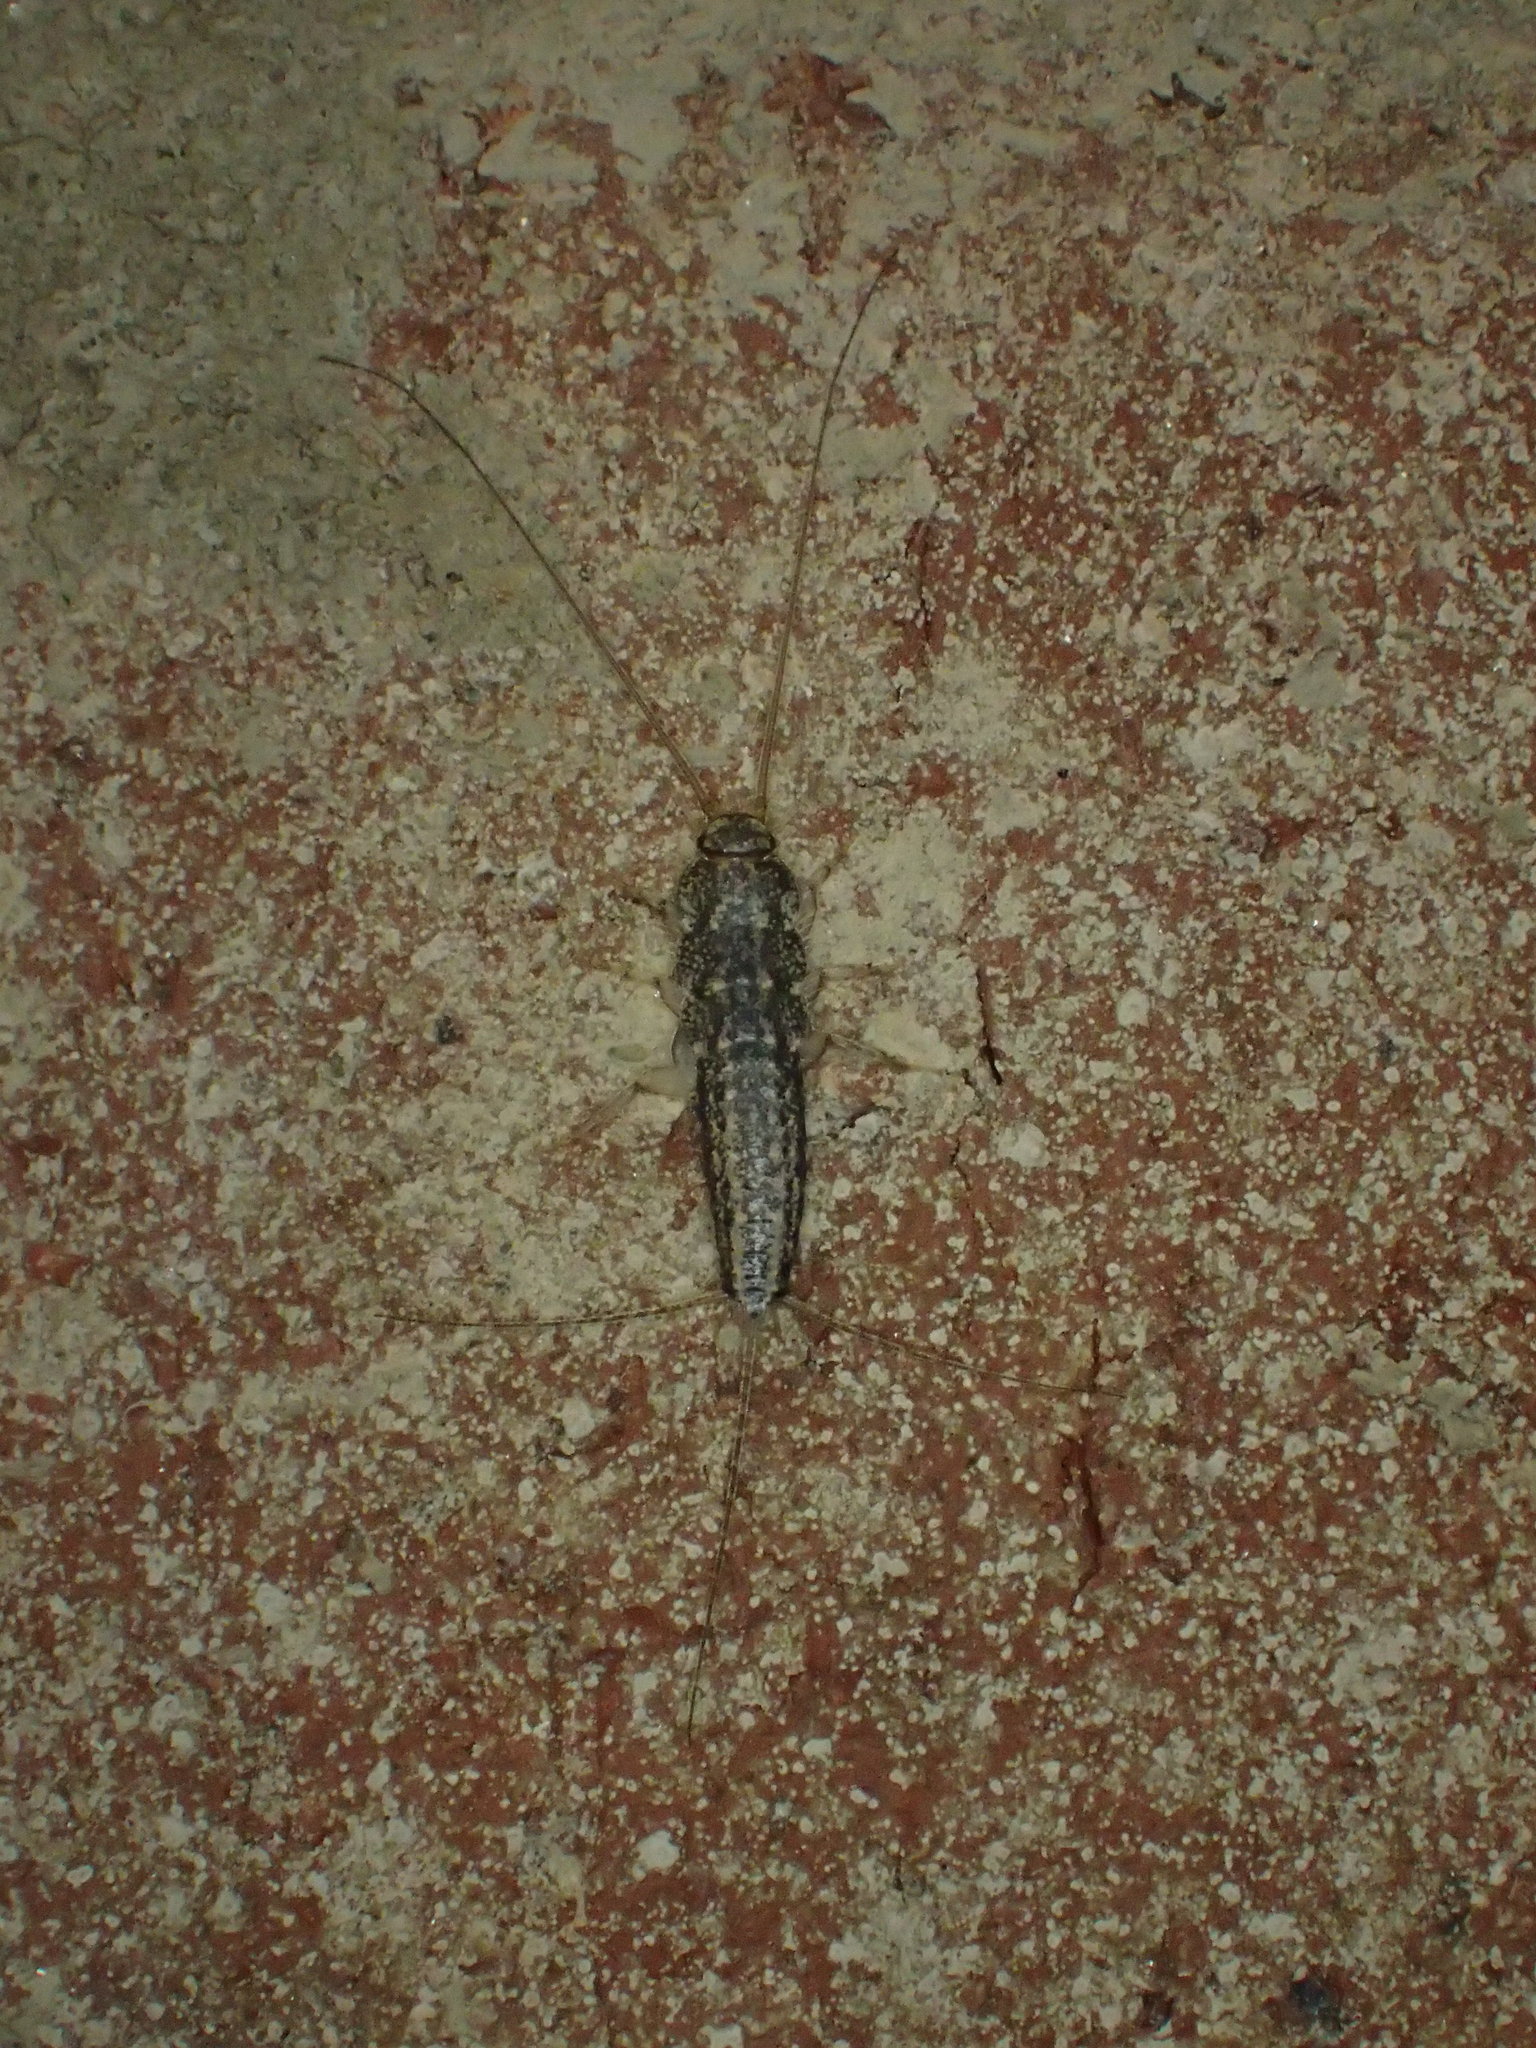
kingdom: Animalia
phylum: Arthropoda
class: Insecta
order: Zygentoma
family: Lepismatidae
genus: Ctenolepisma
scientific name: Ctenolepisma lineata
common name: Four-lined silverfish
